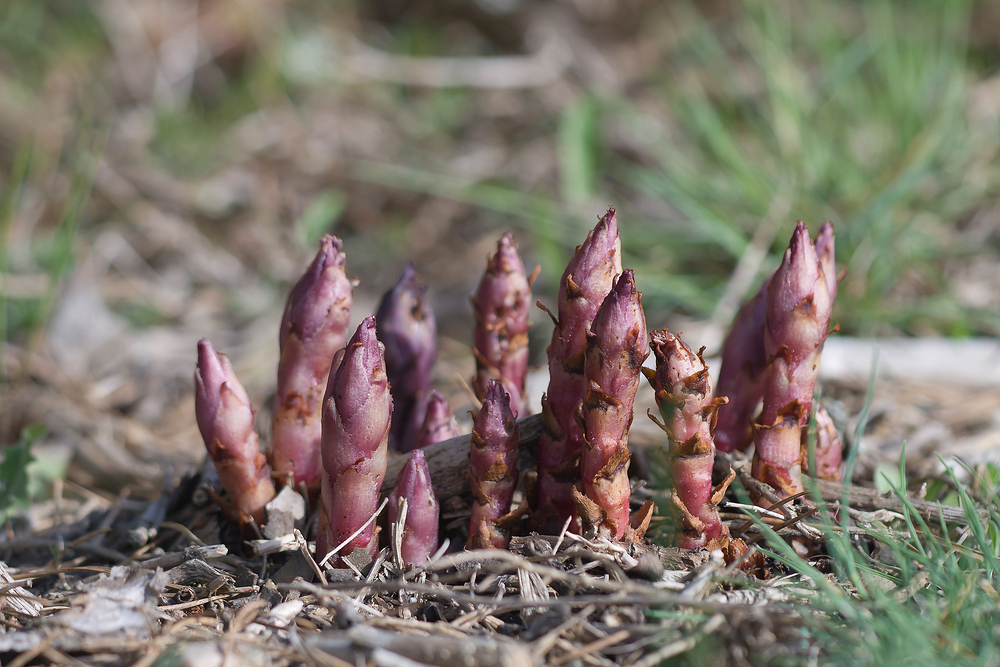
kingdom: Plantae
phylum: Tracheophyta
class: Magnoliopsida
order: Lamiales
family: Orobanchaceae
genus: Boulardia
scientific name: Boulardia latisquama
